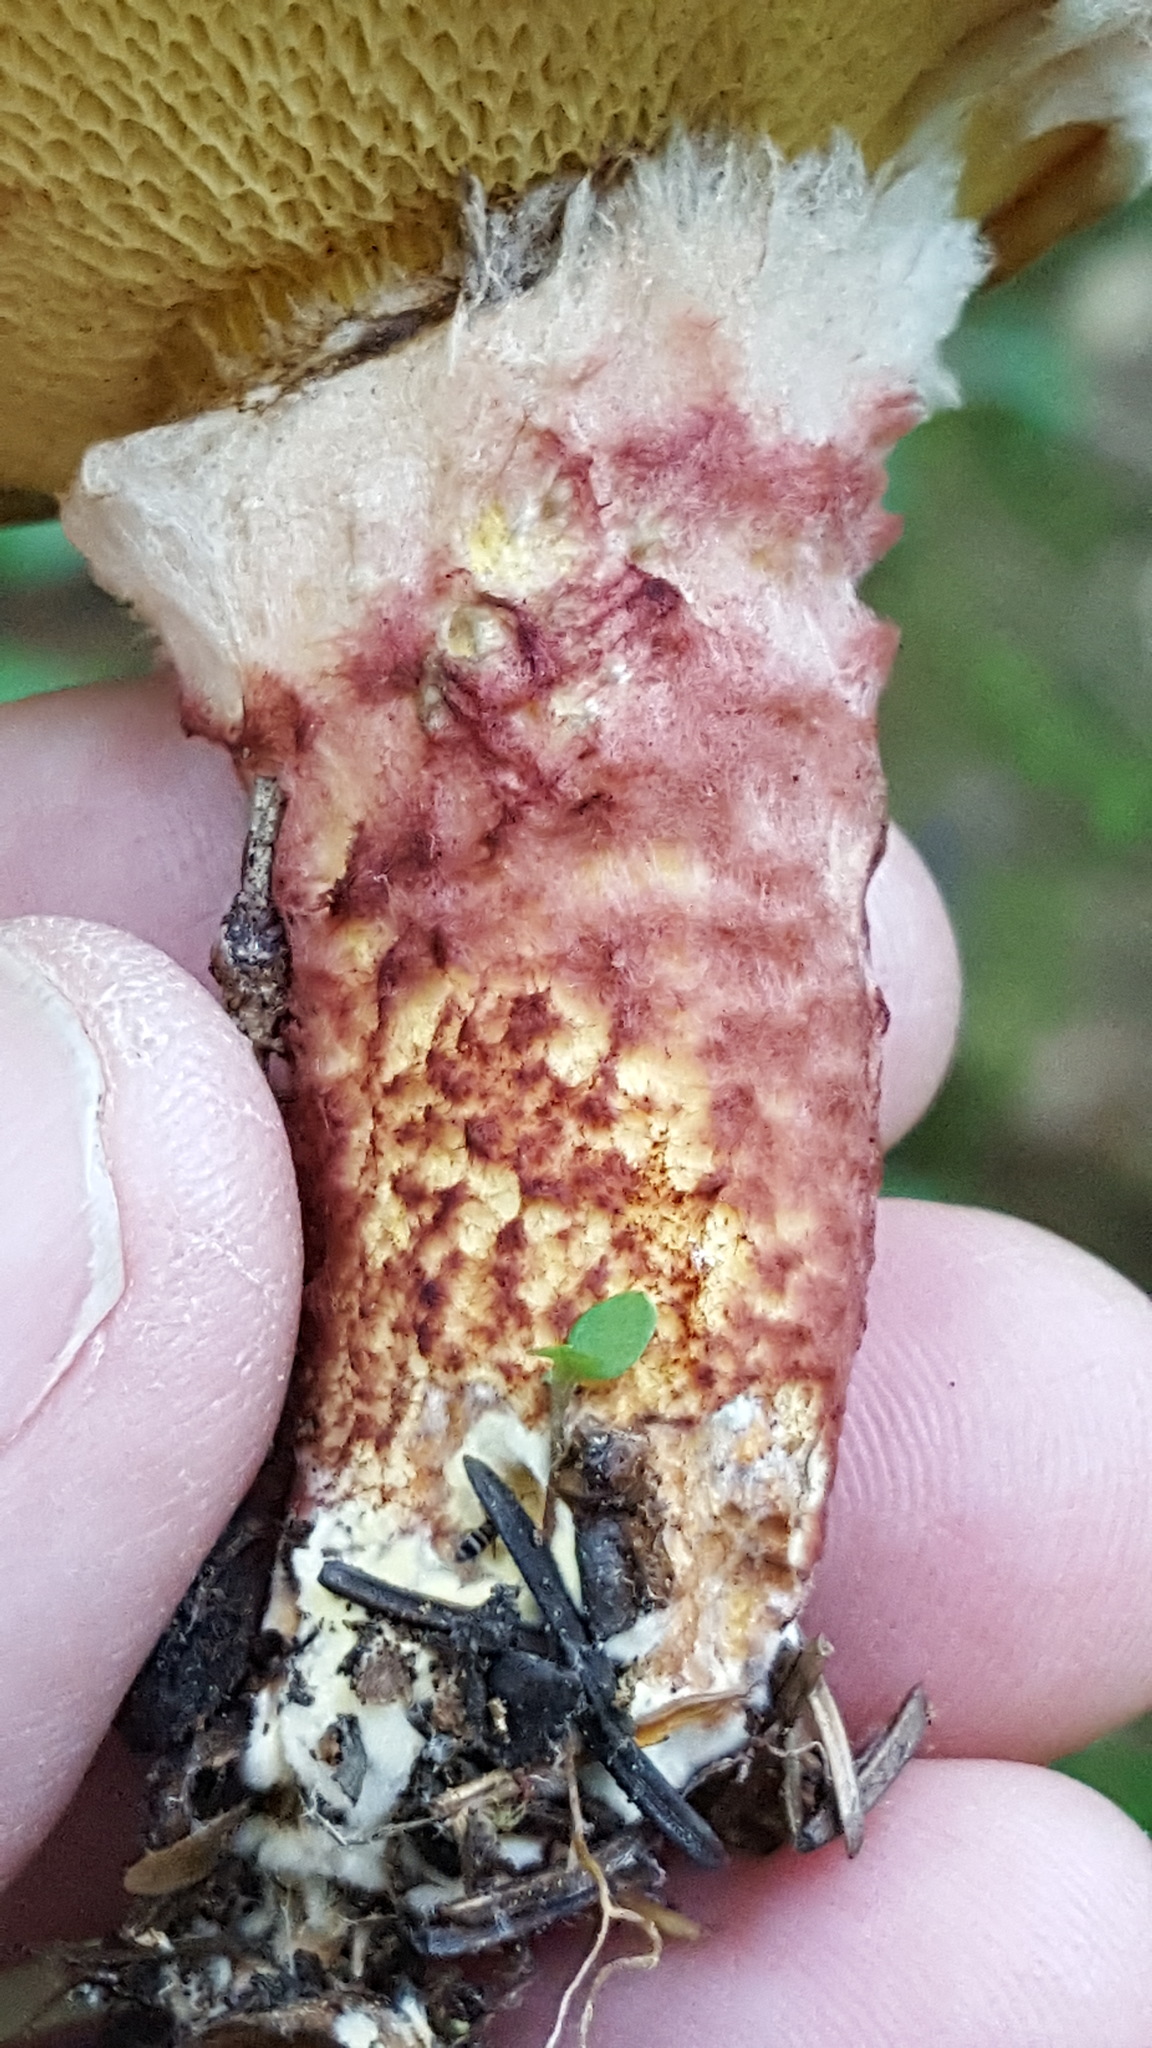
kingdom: Fungi
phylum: Basidiomycota
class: Agaricomycetes
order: Boletales
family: Suillaceae
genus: Suillus
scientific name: Suillus spraguei
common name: Painted suillus
